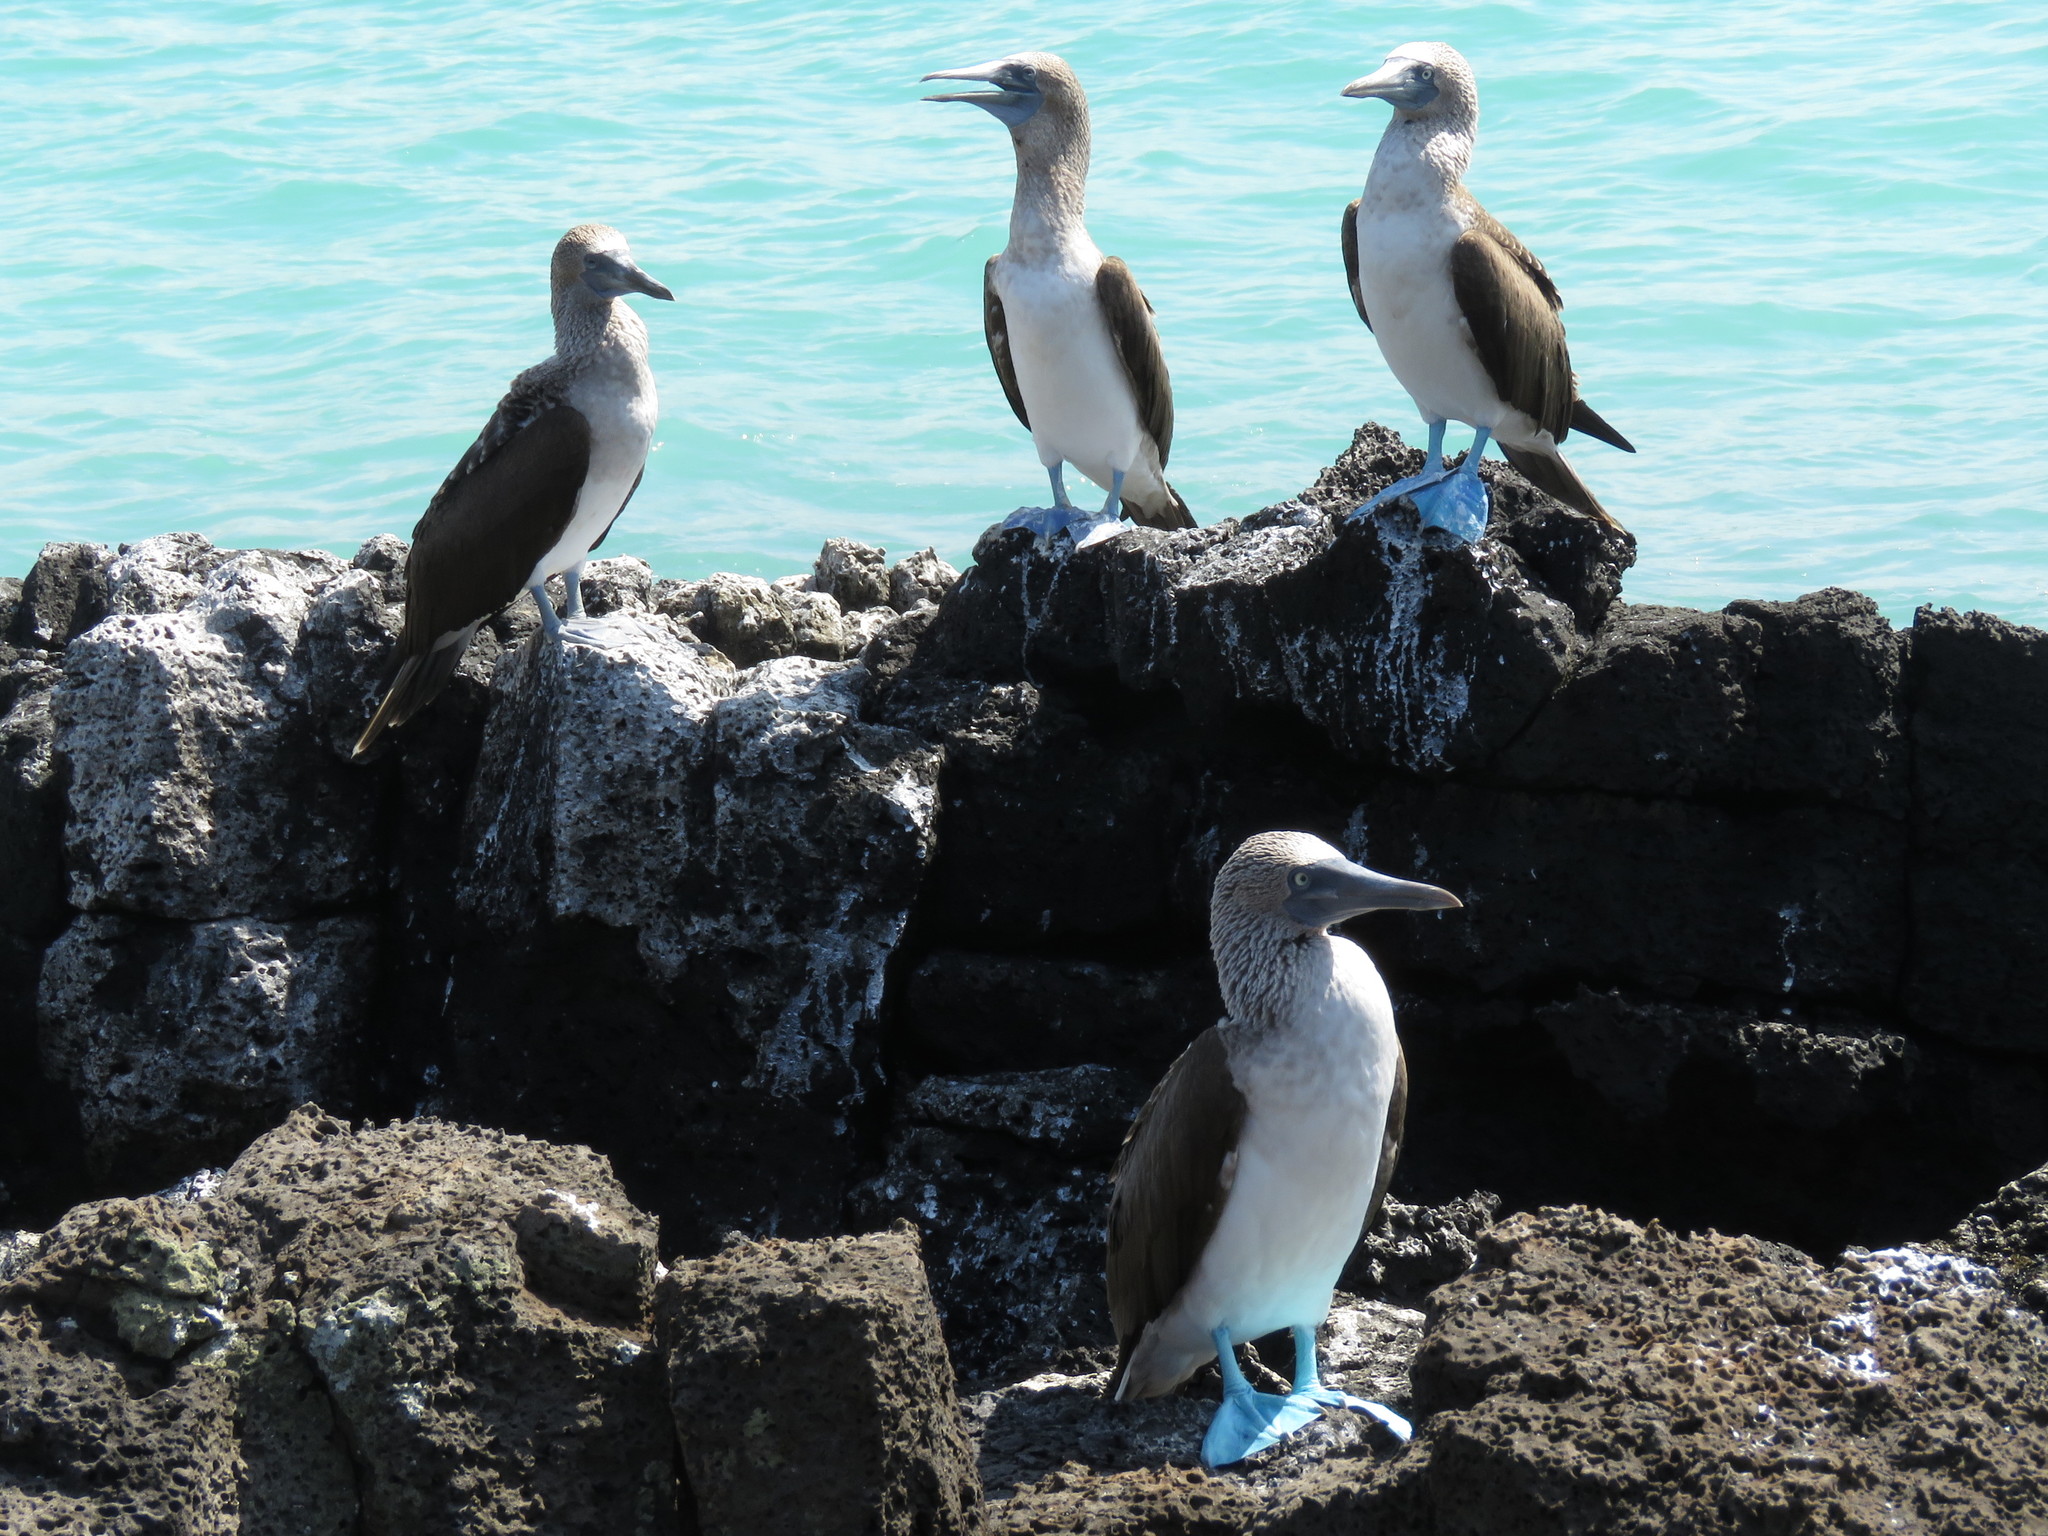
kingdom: Animalia
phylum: Chordata
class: Aves
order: Suliformes
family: Sulidae
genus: Sula
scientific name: Sula nebouxii
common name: Blue-footed booby
